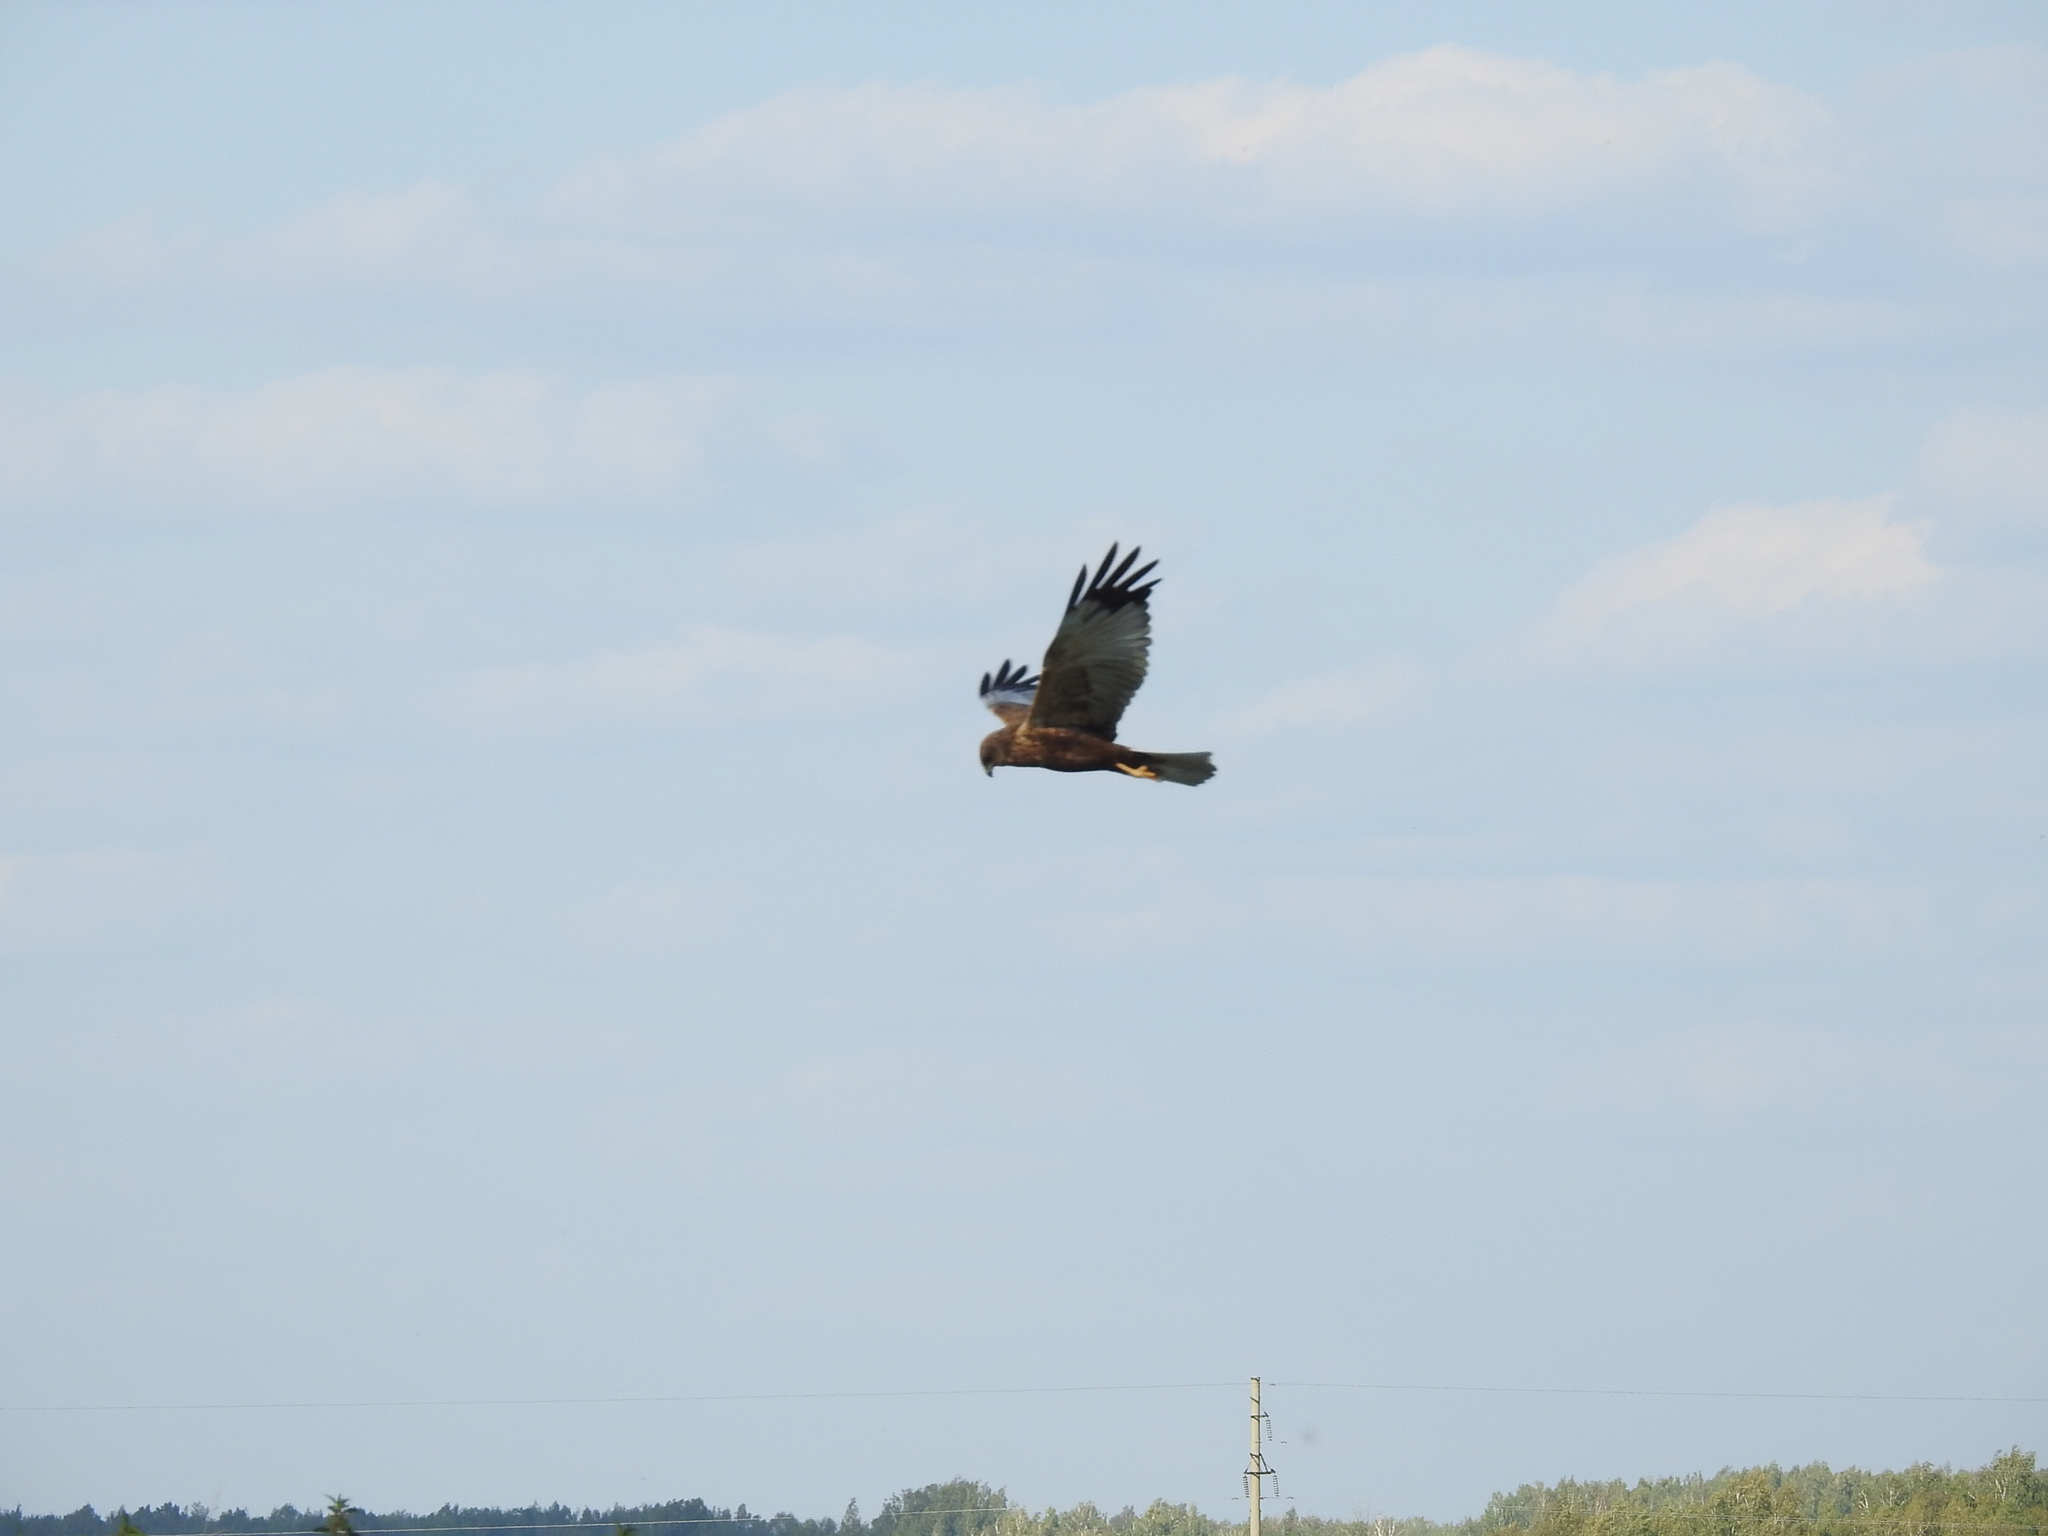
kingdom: Animalia
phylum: Chordata
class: Aves
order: Accipitriformes
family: Accipitridae
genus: Circus
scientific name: Circus aeruginosus
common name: Western marsh harrier
